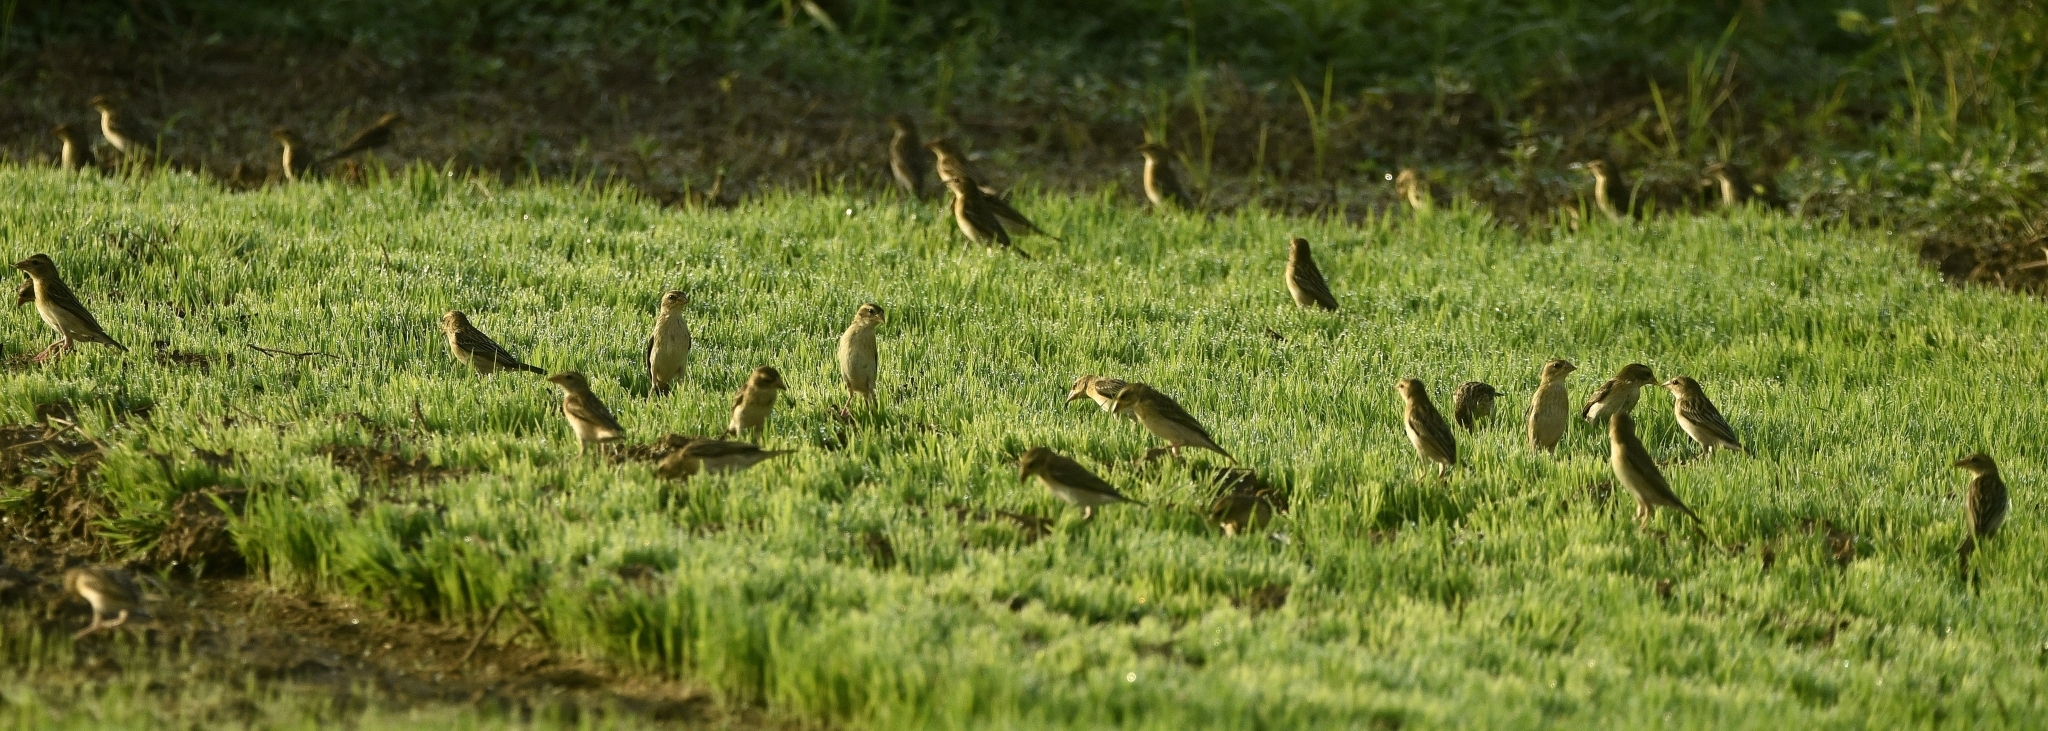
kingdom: Animalia
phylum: Chordata
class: Aves
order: Passeriformes
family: Ploceidae
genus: Ploceus
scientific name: Ploceus philippinus
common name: Baya weaver
